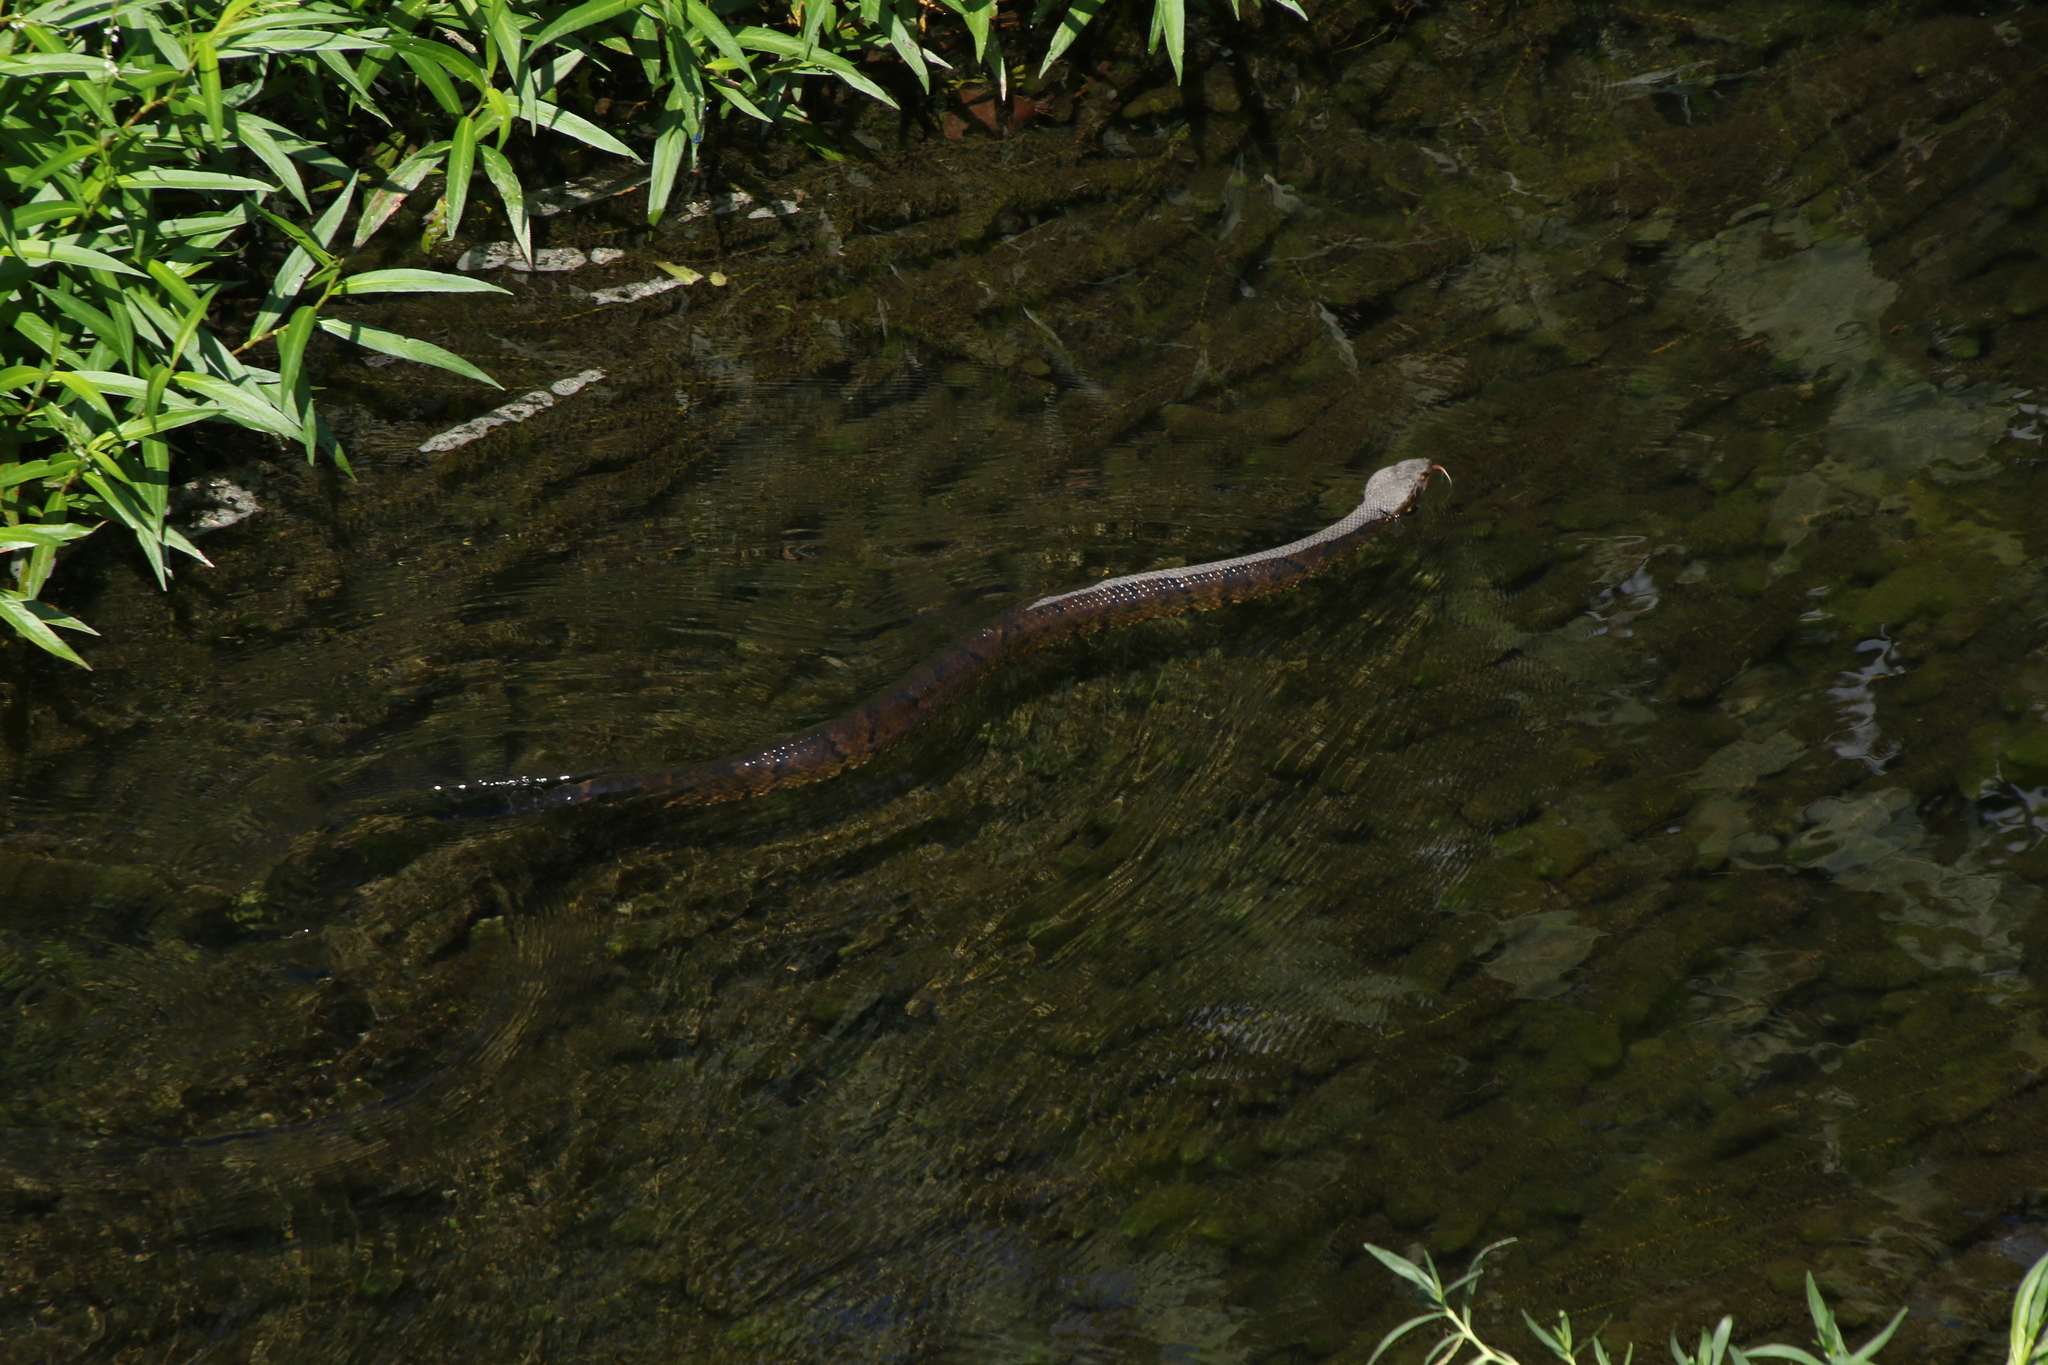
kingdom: Animalia
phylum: Chordata
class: Squamata
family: Viperidae
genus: Agkistrodon
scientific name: Agkistrodon piscivorus
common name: Cottonmouth
